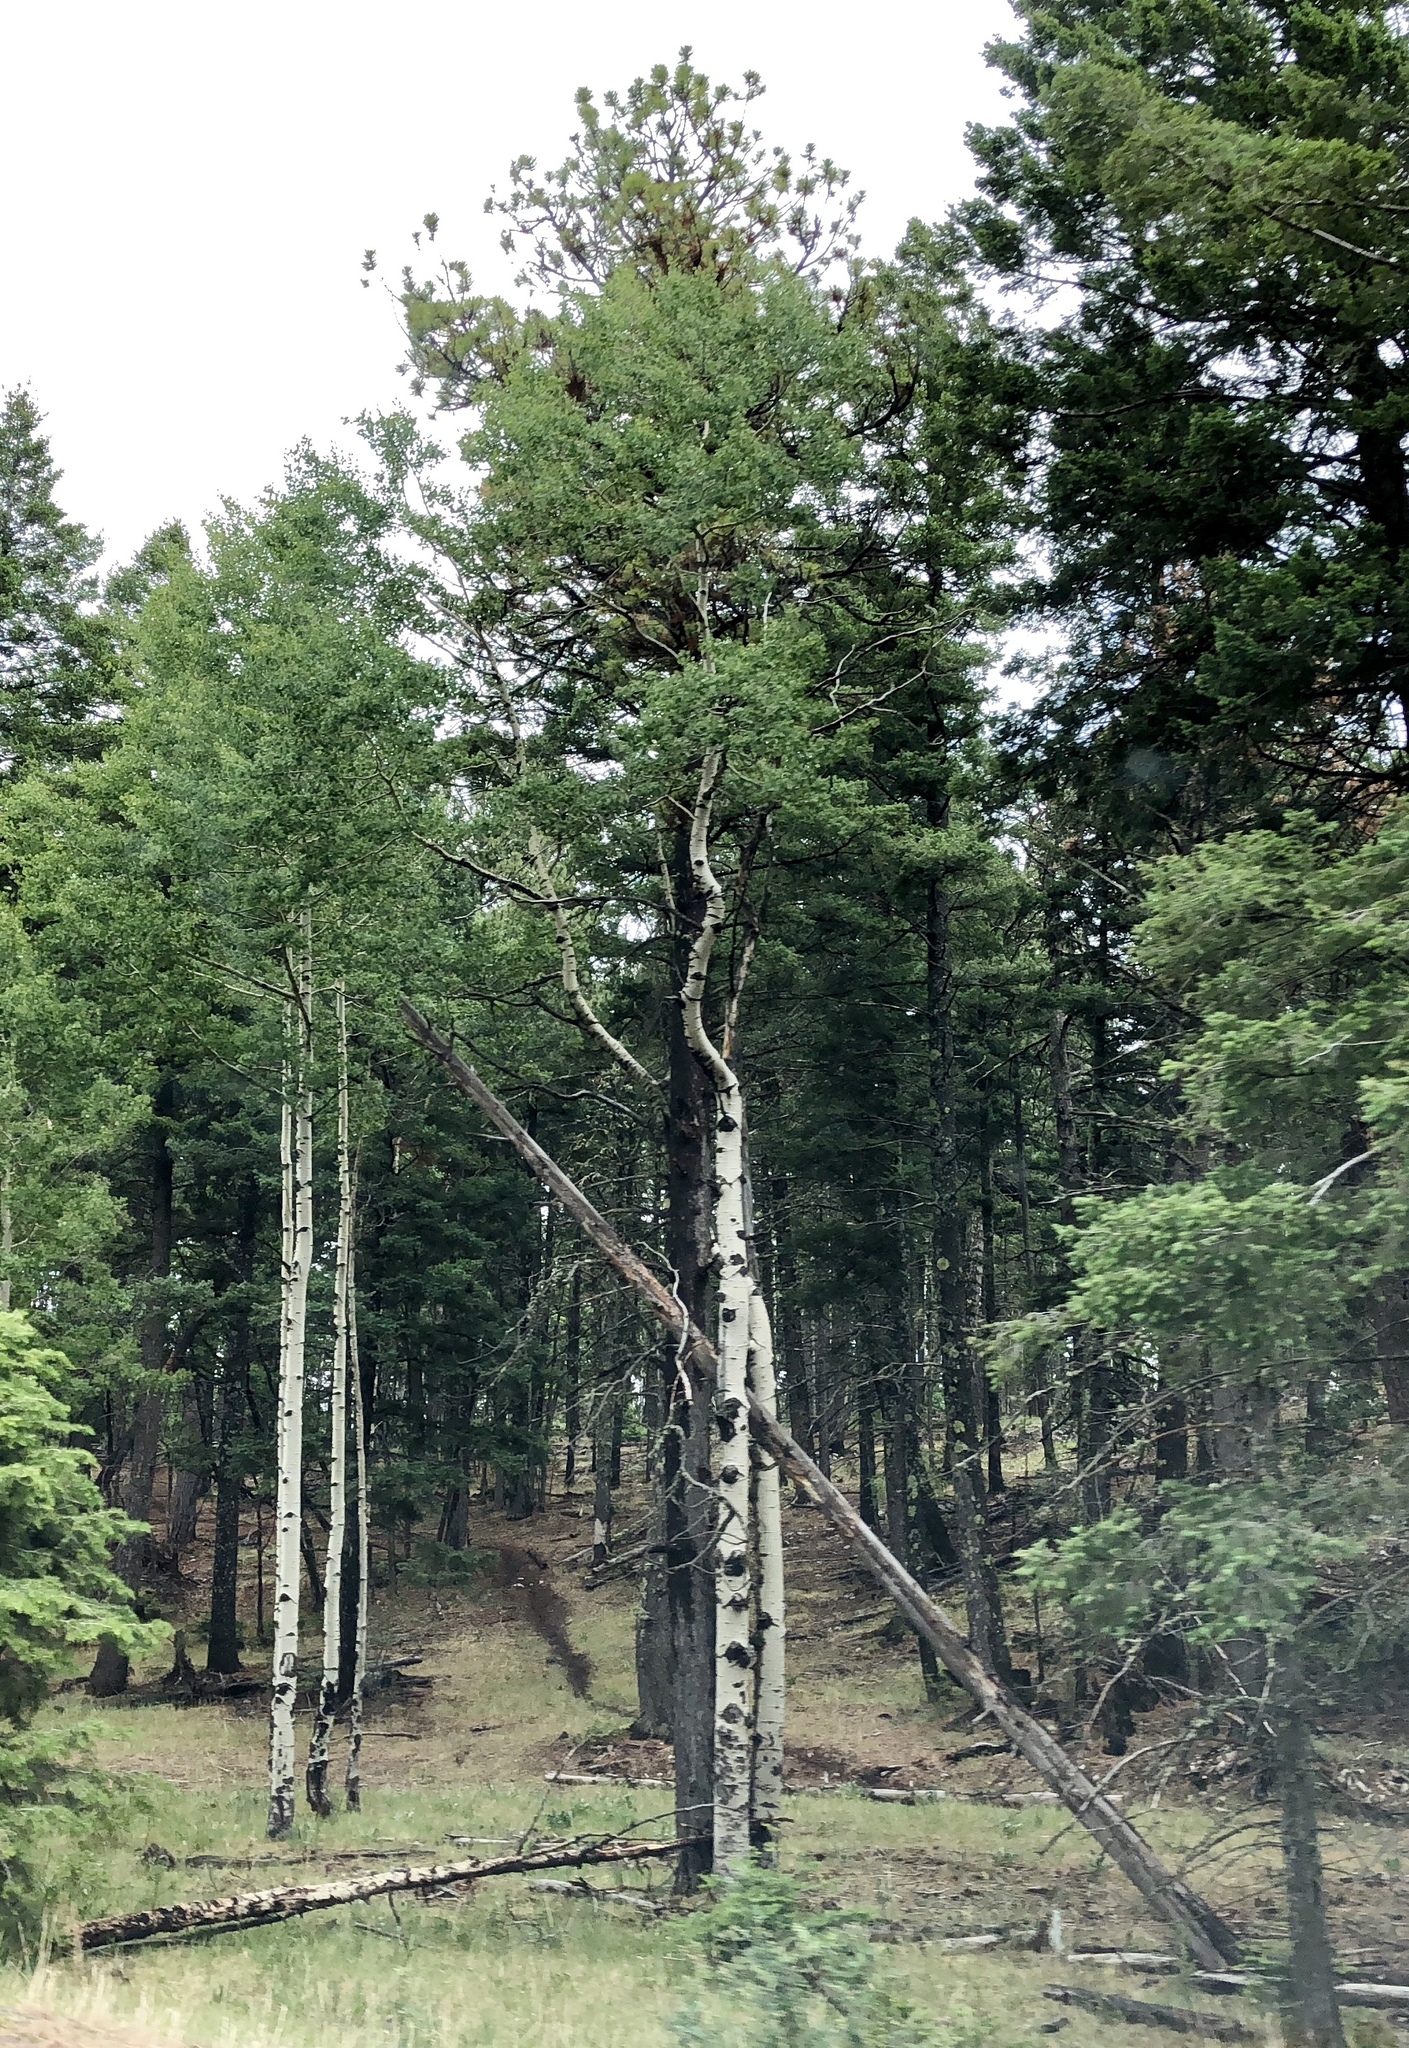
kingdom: Plantae
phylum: Tracheophyta
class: Magnoliopsida
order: Malpighiales
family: Salicaceae
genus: Populus
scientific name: Populus tremuloides
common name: Quaking aspen
